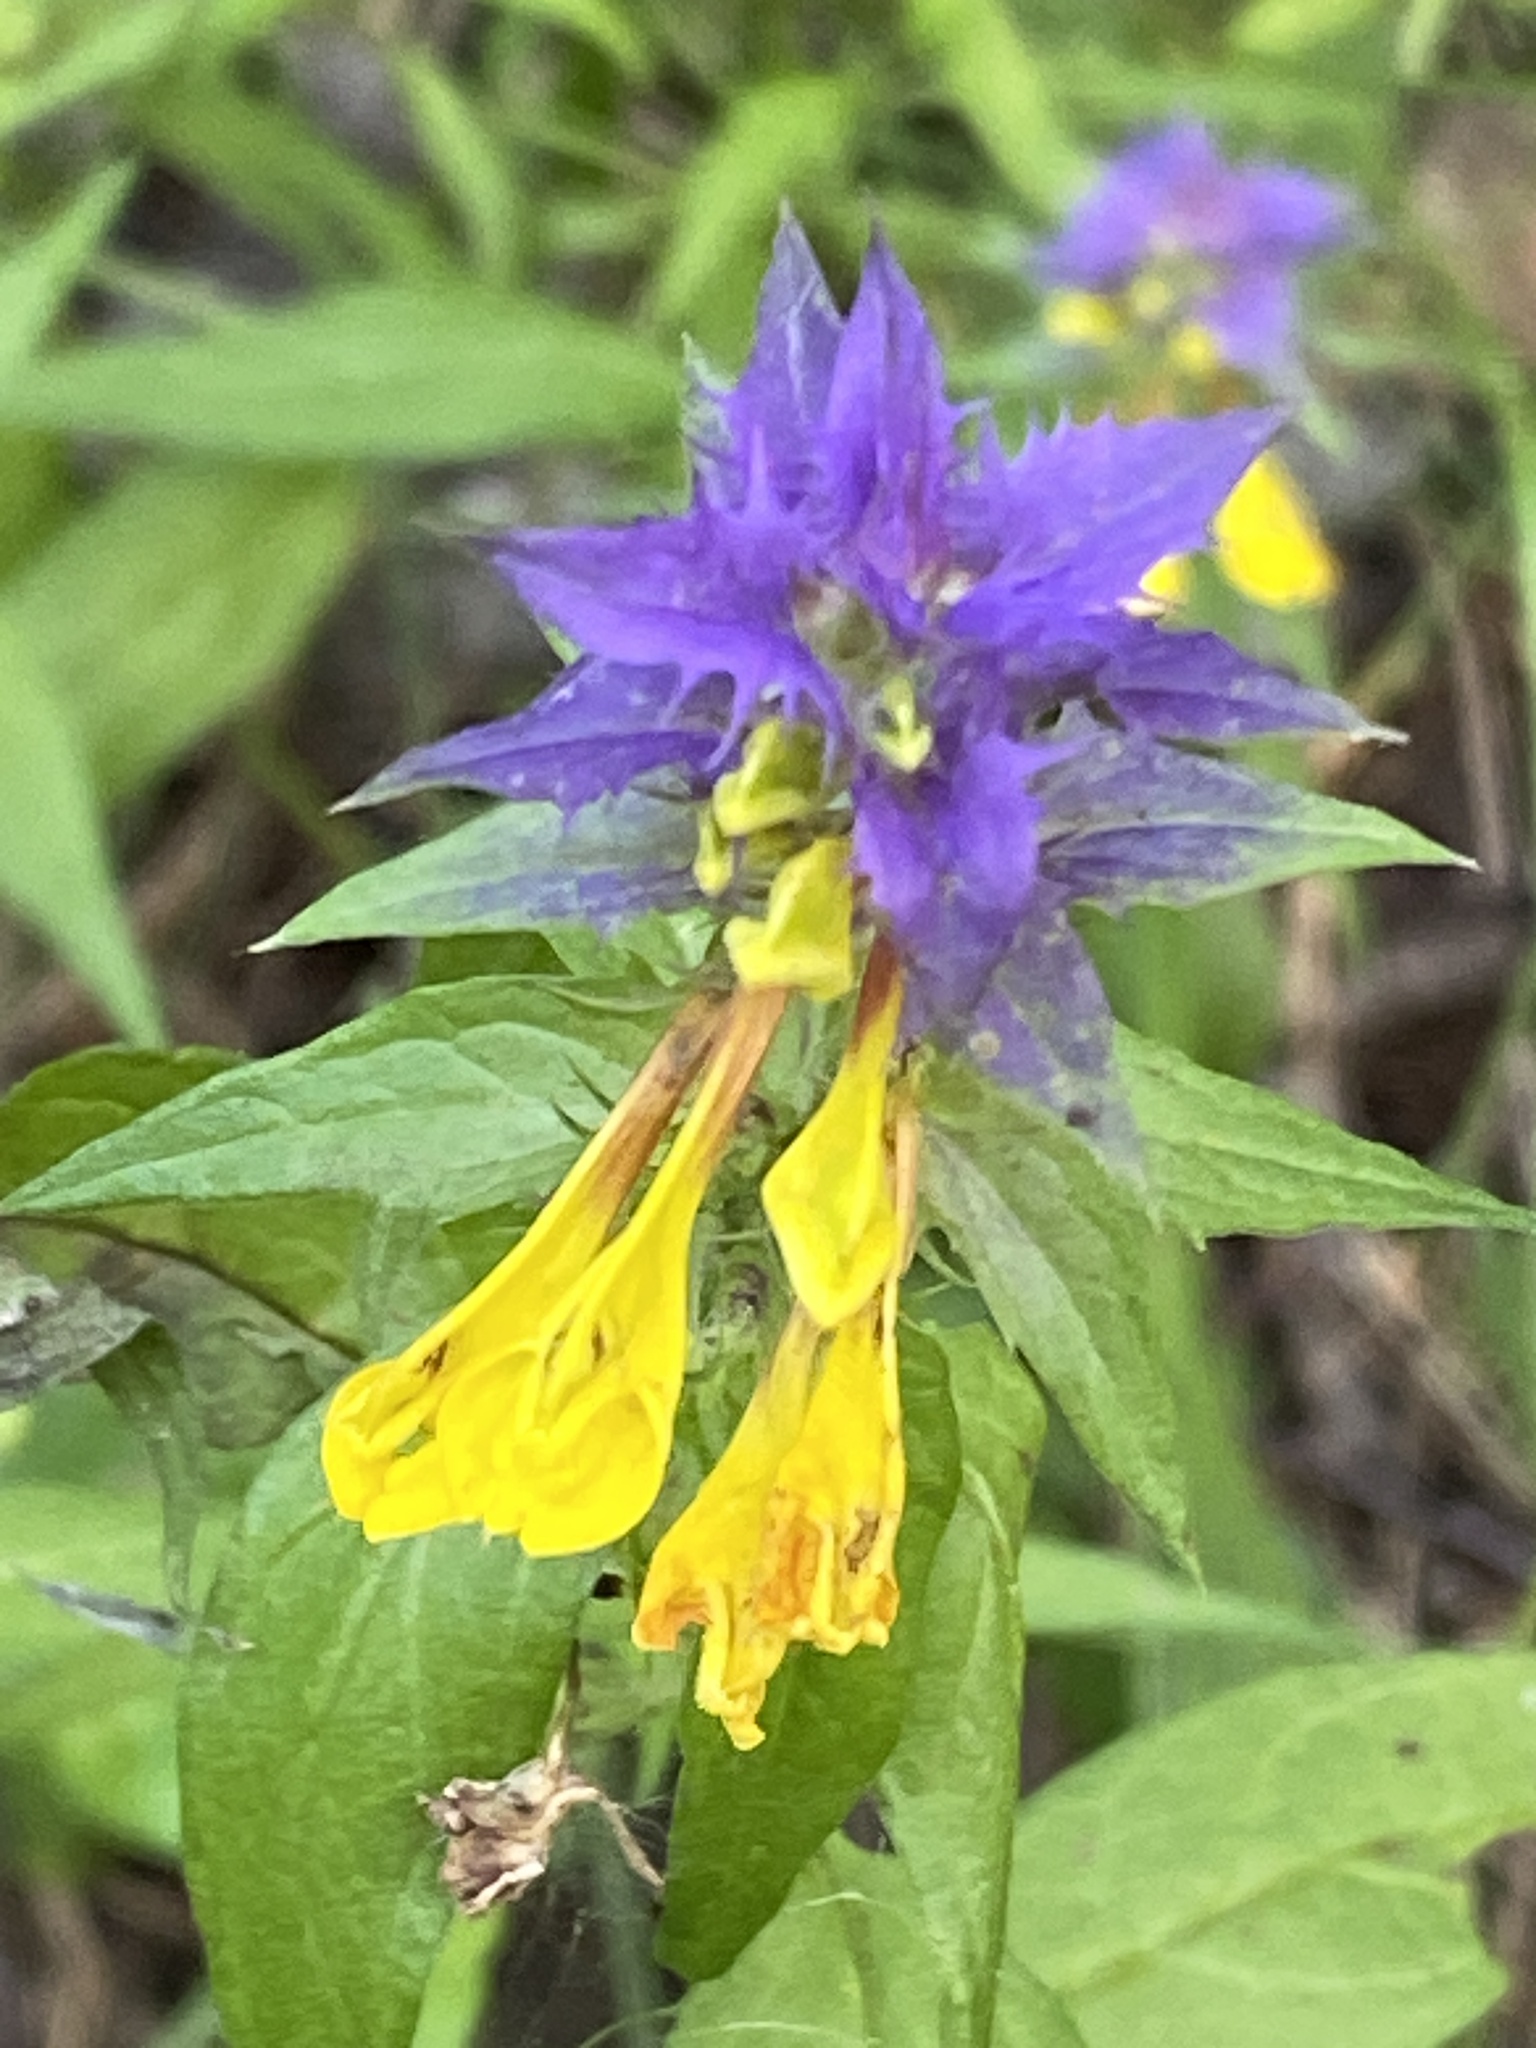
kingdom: Plantae
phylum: Tracheophyta
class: Magnoliopsida
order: Lamiales
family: Orobanchaceae
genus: Melampyrum
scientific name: Melampyrum nemorosum
